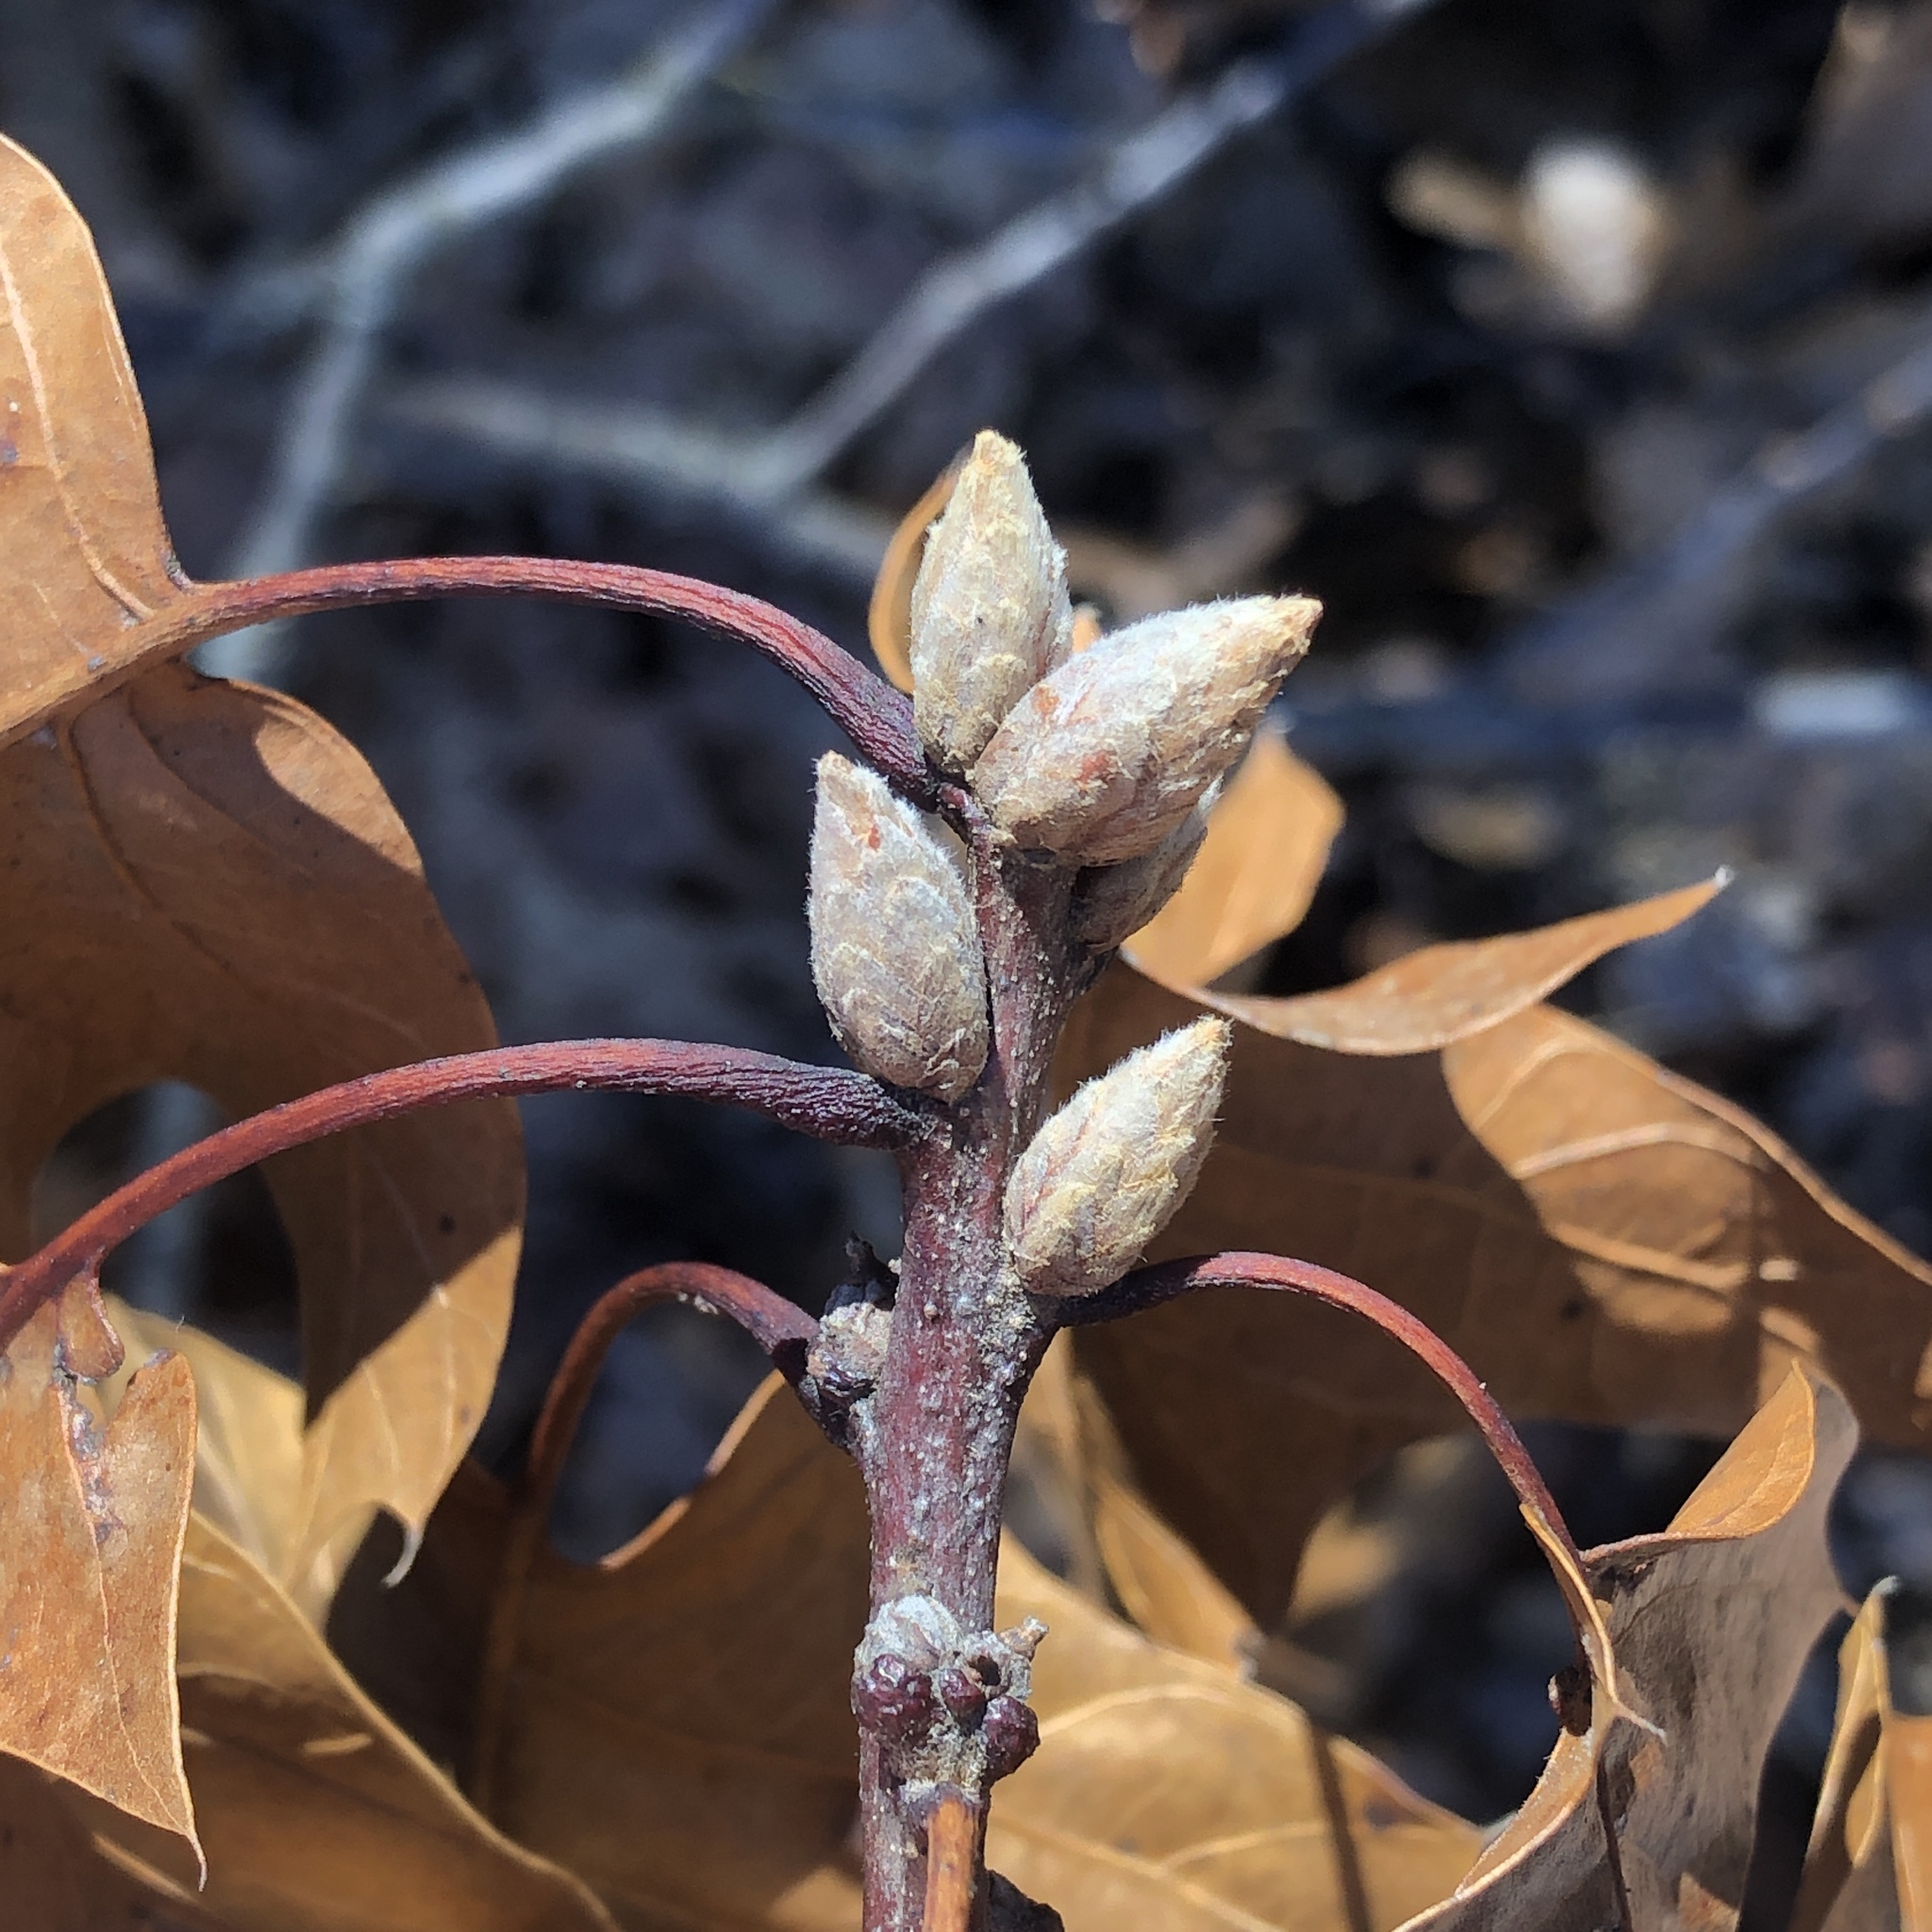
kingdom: Plantae
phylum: Tracheophyta
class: Magnoliopsida
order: Fagales
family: Fagaceae
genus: Quercus
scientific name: Quercus velutina
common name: Black oak
